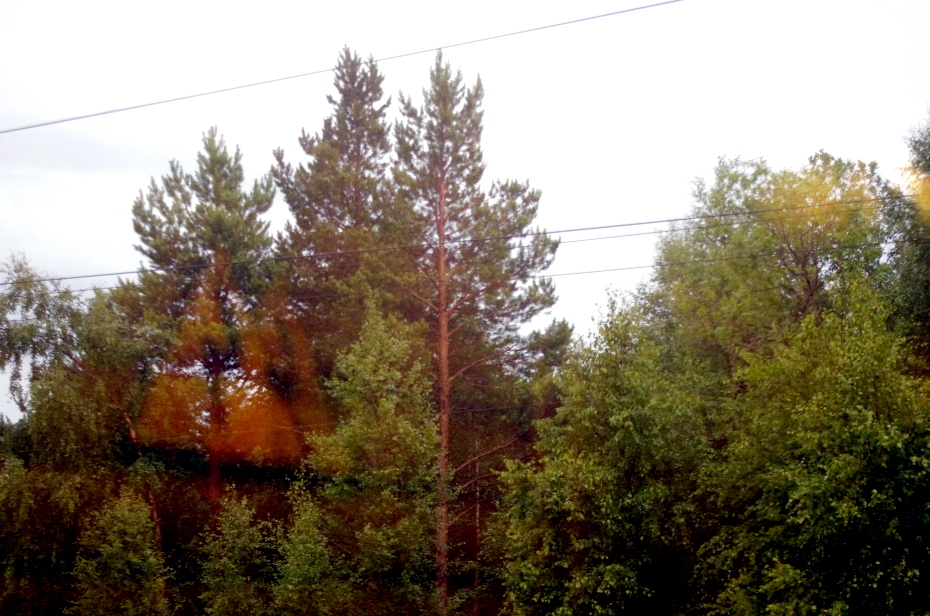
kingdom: Plantae
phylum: Tracheophyta
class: Pinopsida
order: Pinales
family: Pinaceae
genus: Pinus
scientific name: Pinus sylvestris
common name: Scots pine
